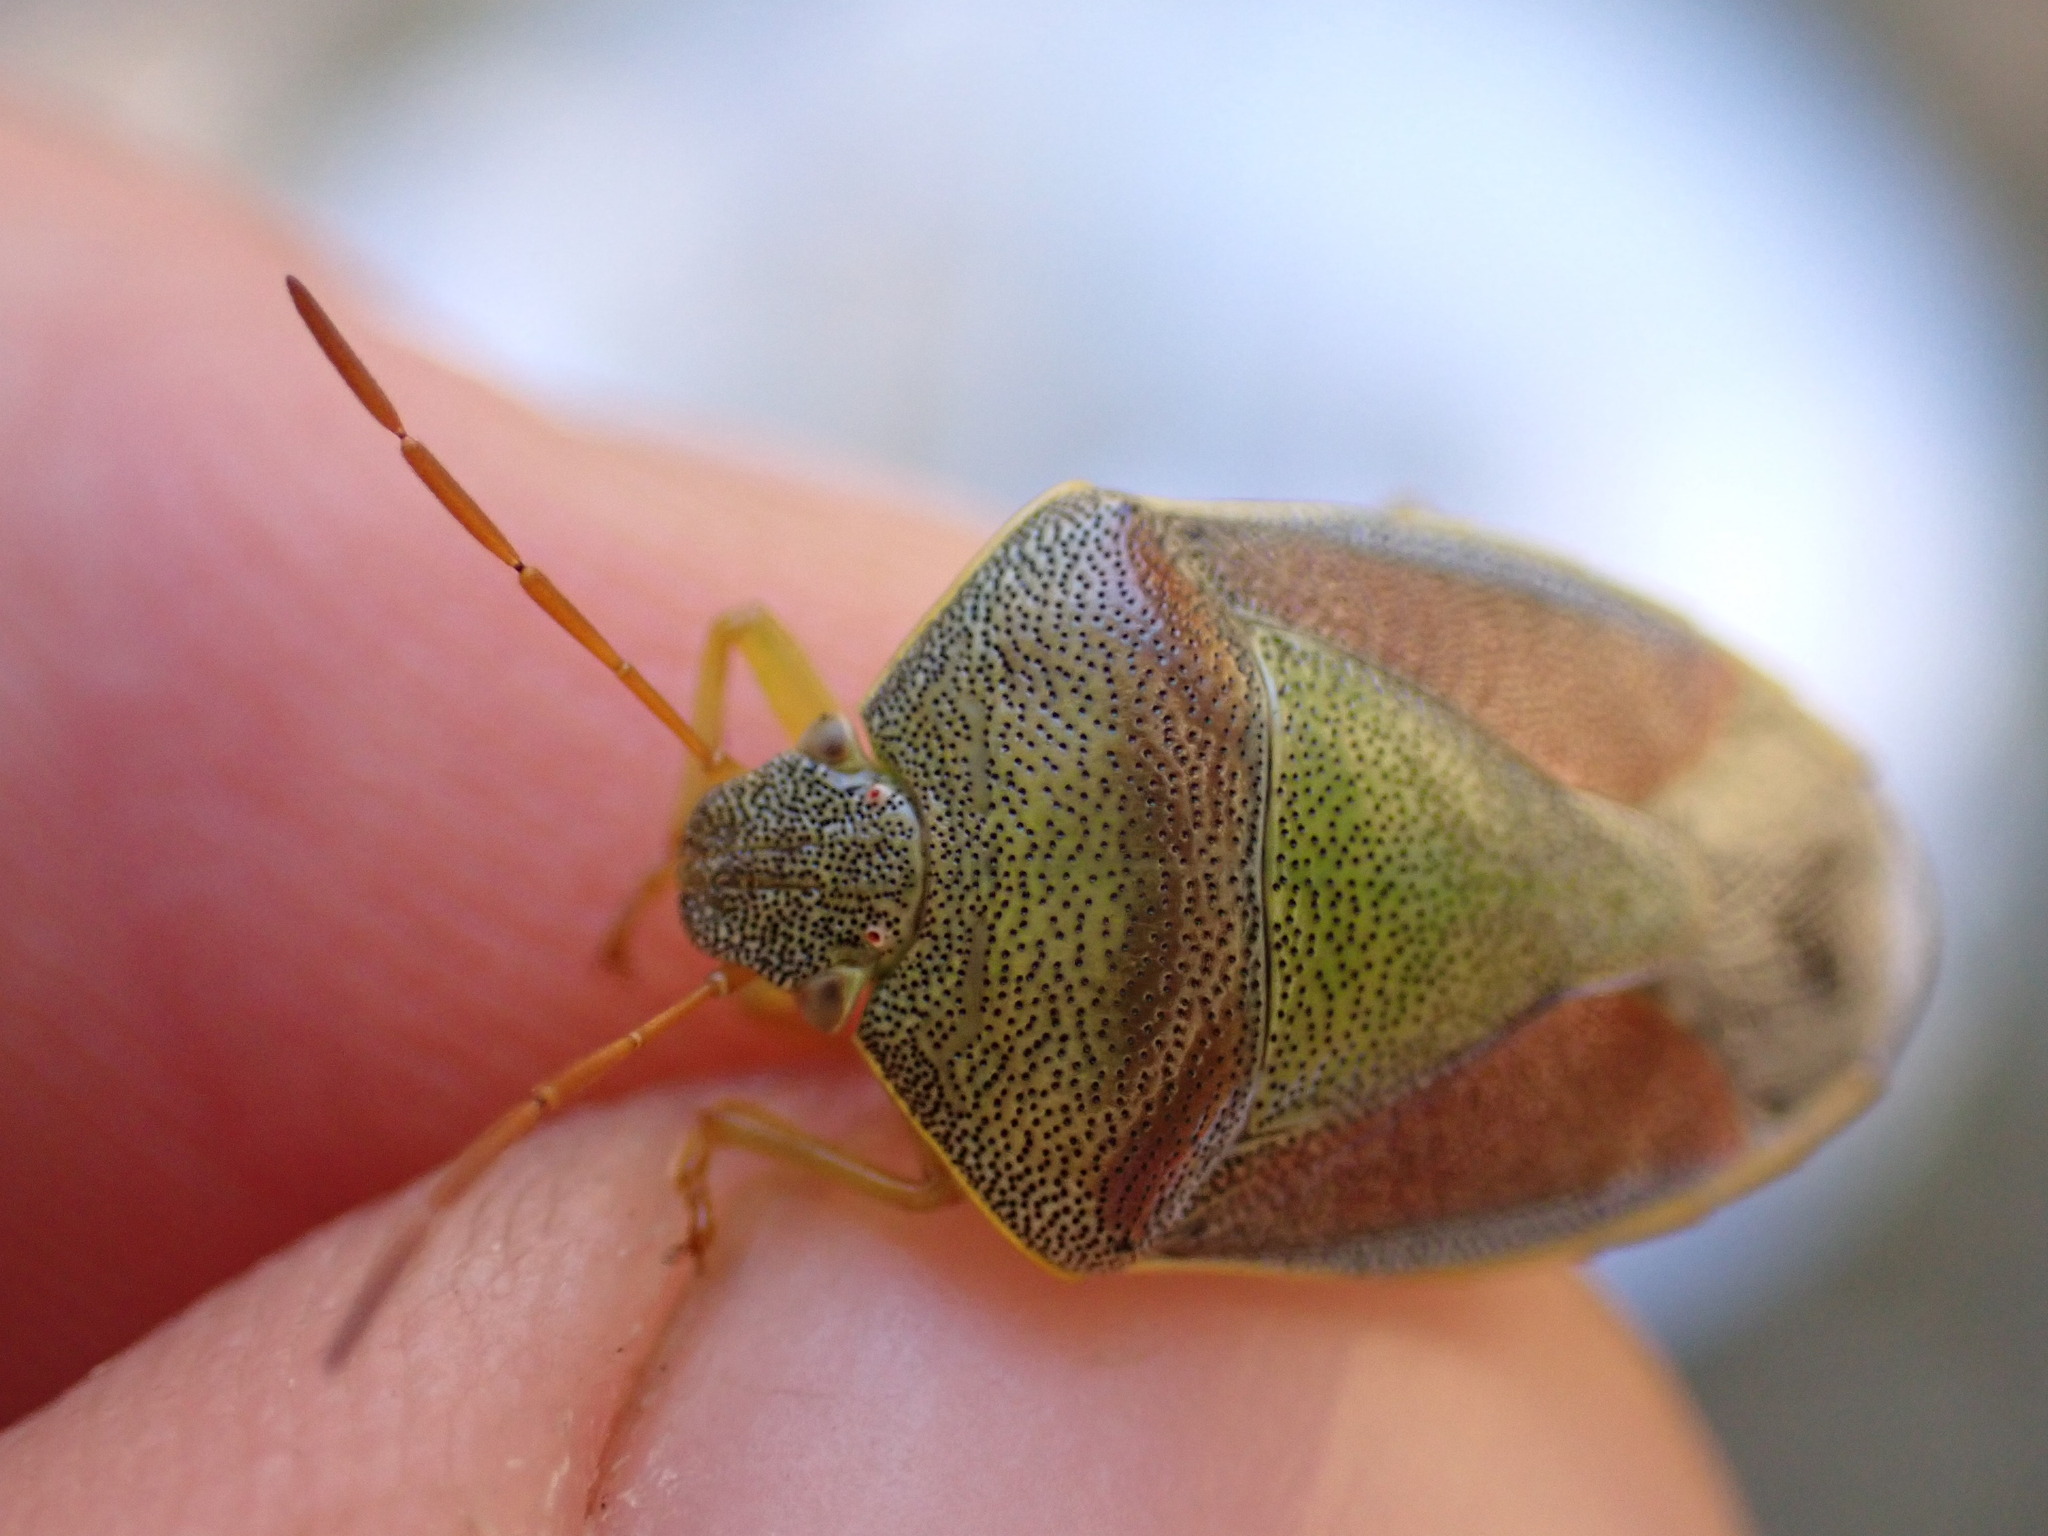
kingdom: Animalia
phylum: Arthropoda
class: Insecta
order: Hemiptera
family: Pentatomidae
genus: Piezodorus
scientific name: Piezodorus lituratus
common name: Stink bug
